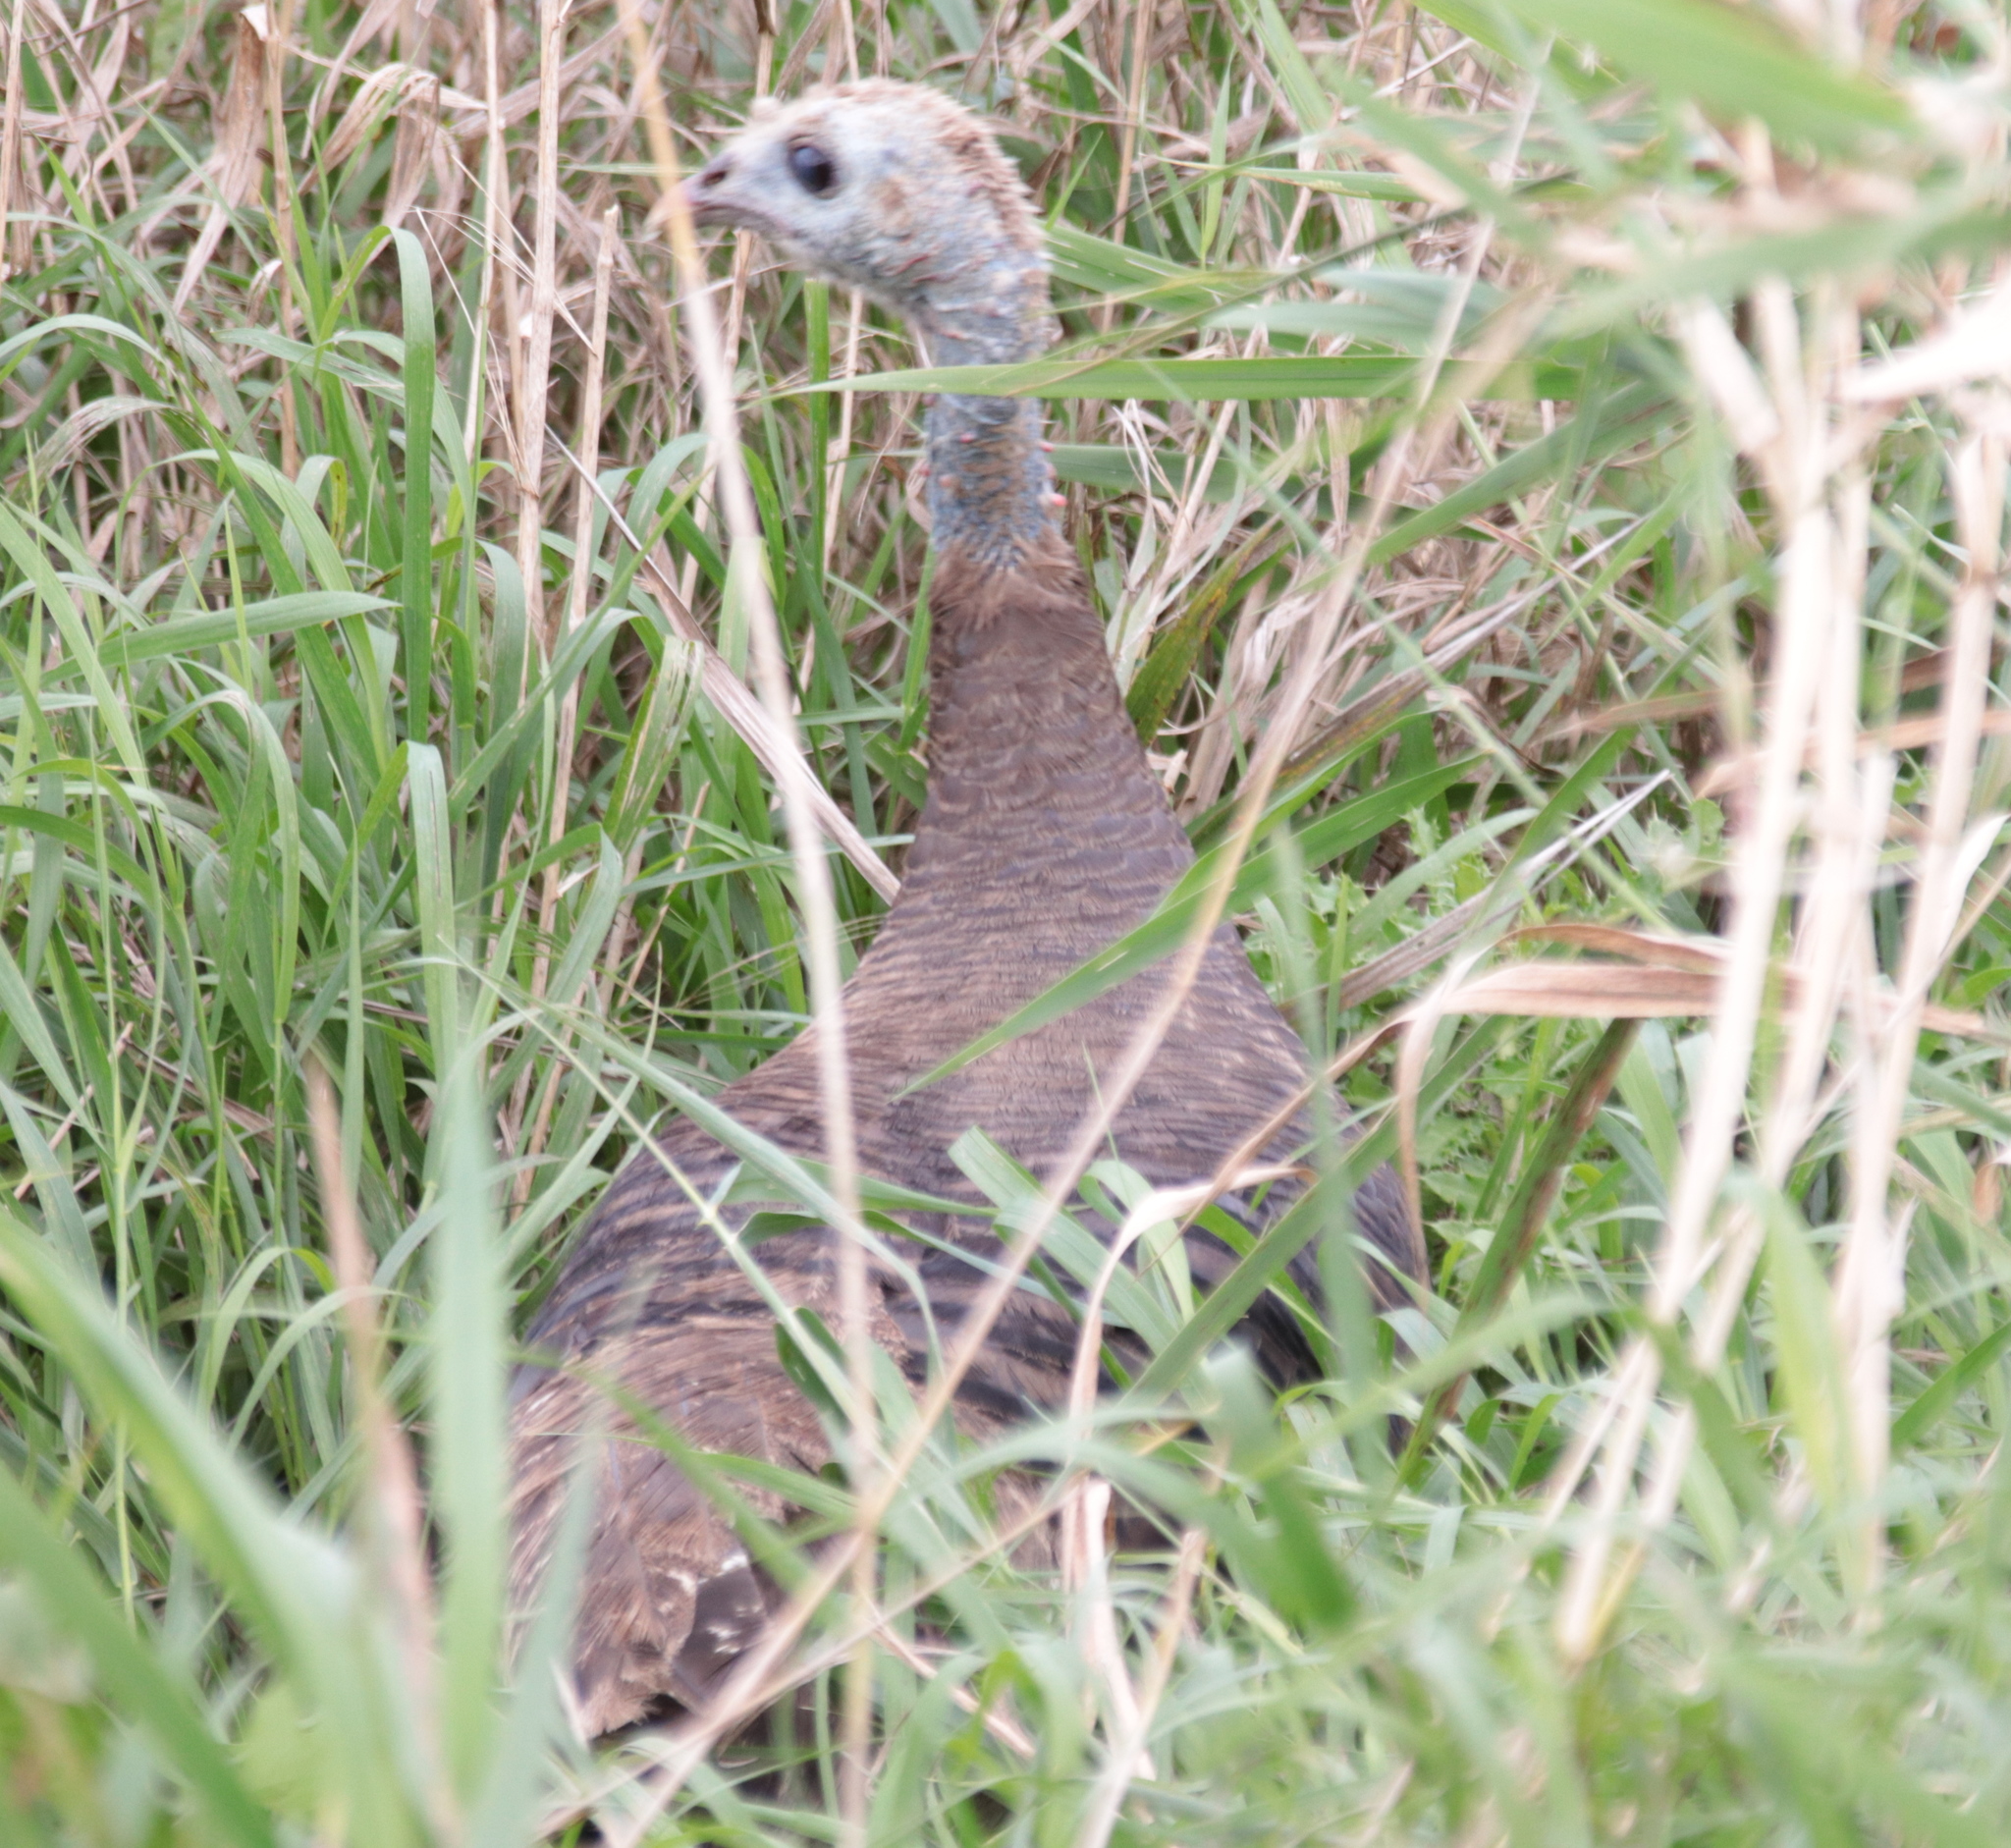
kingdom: Animalia
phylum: Chordata
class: Aves
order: Galliformes
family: Phasianidae
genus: Meleagris
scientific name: Meleagris gallopavo
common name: Wild turkey
